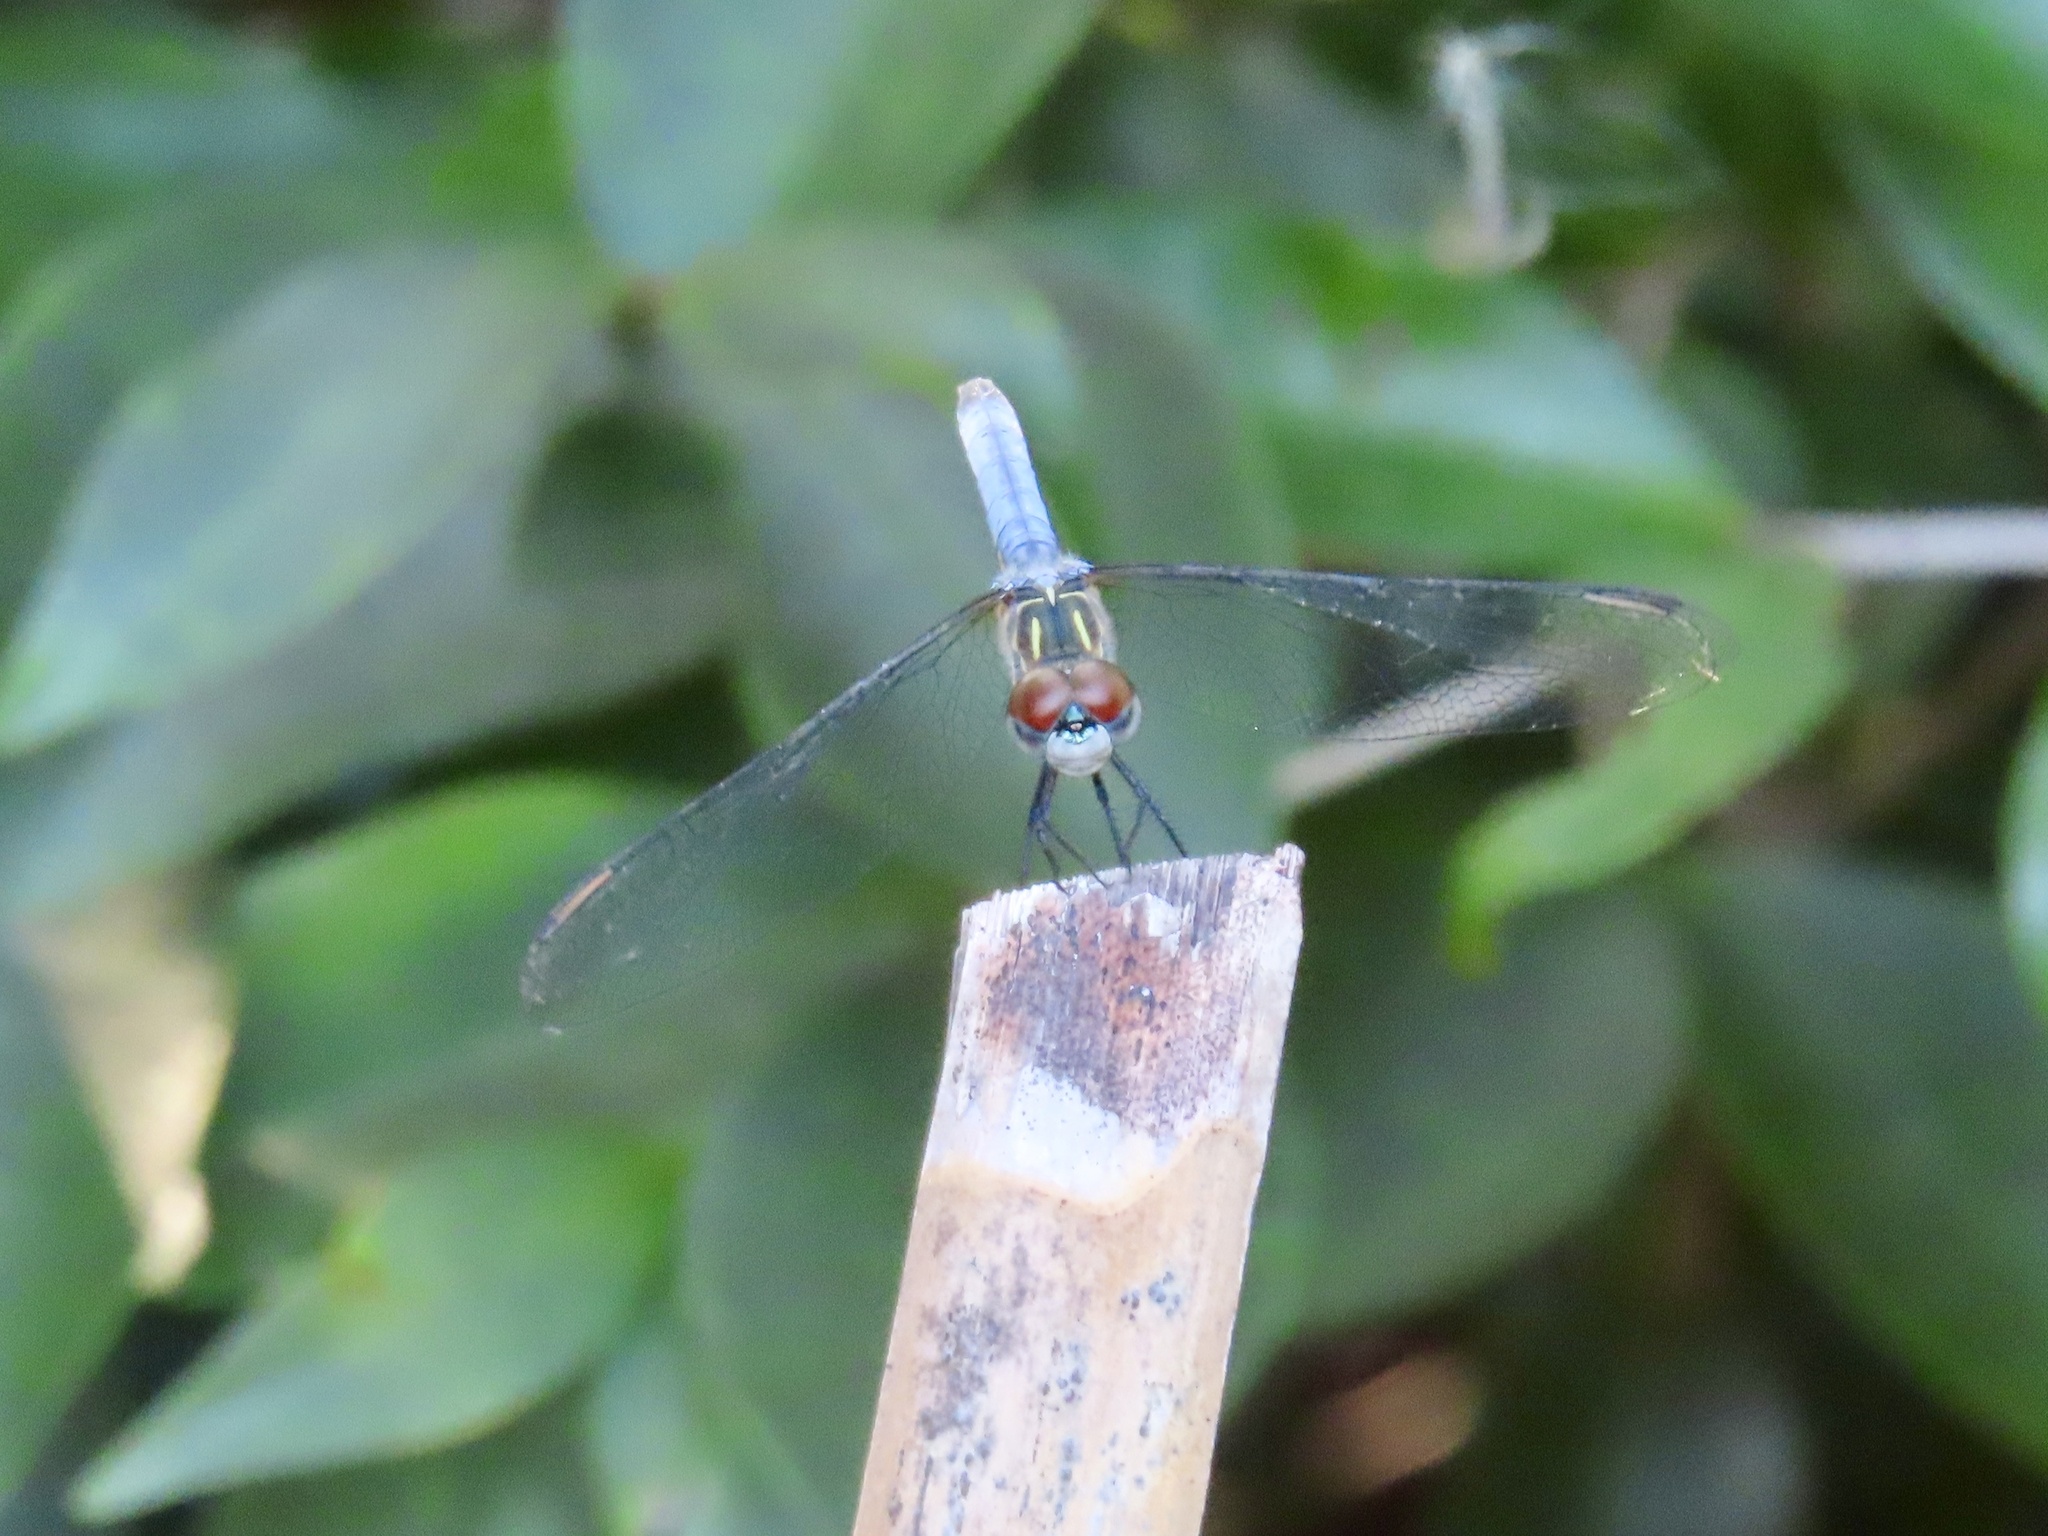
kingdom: Animalia
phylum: Arthropoda
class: Insecta
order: Odonata
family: Libellulidae
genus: Pachydiplax
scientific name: Pachydiplax longipennis
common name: Blue dasher
